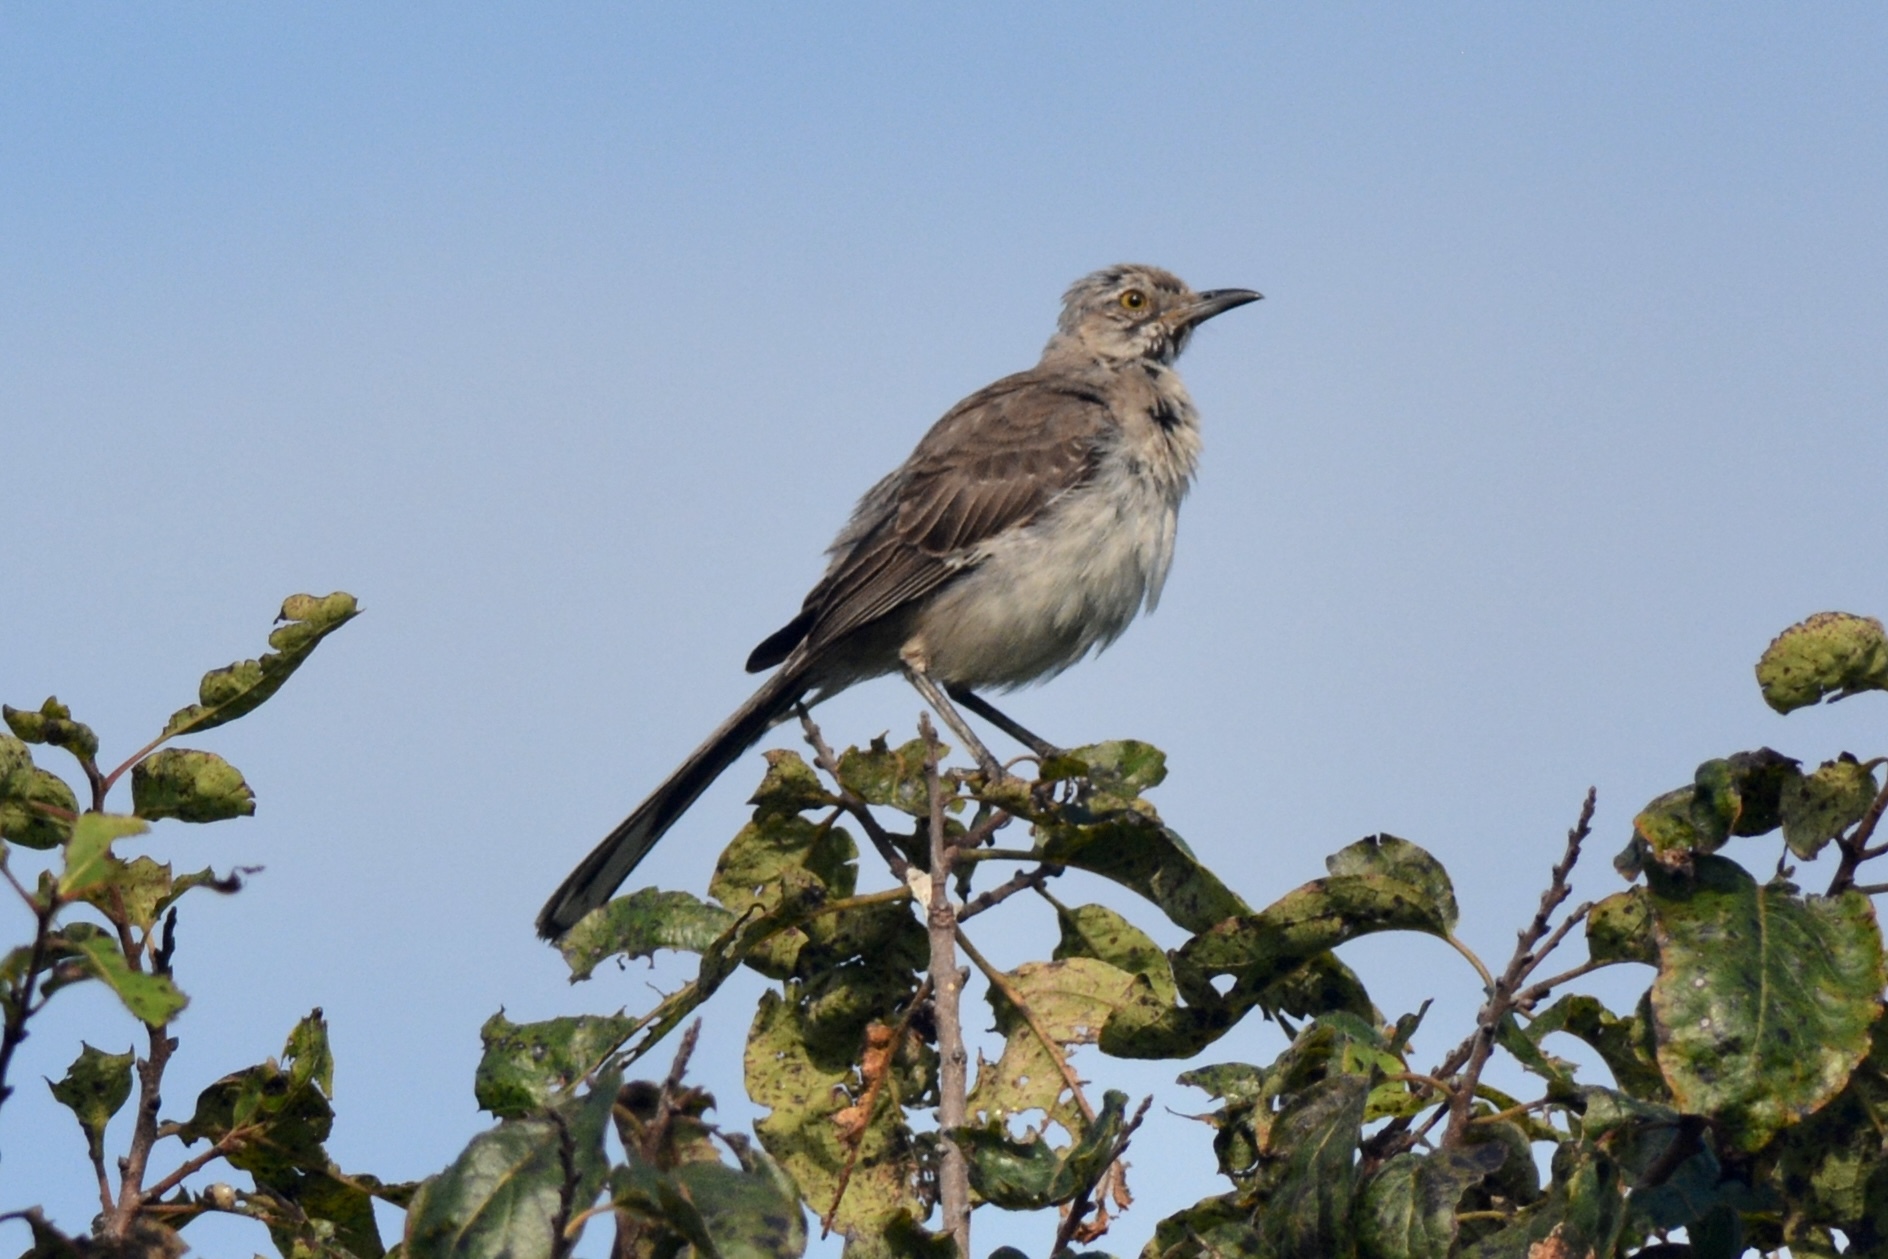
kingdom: Animalia
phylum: Chordata
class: Aves
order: Passeriformes
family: Mimidae
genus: Mimus
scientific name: Mimus polyglottos
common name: Northern mockingbird
